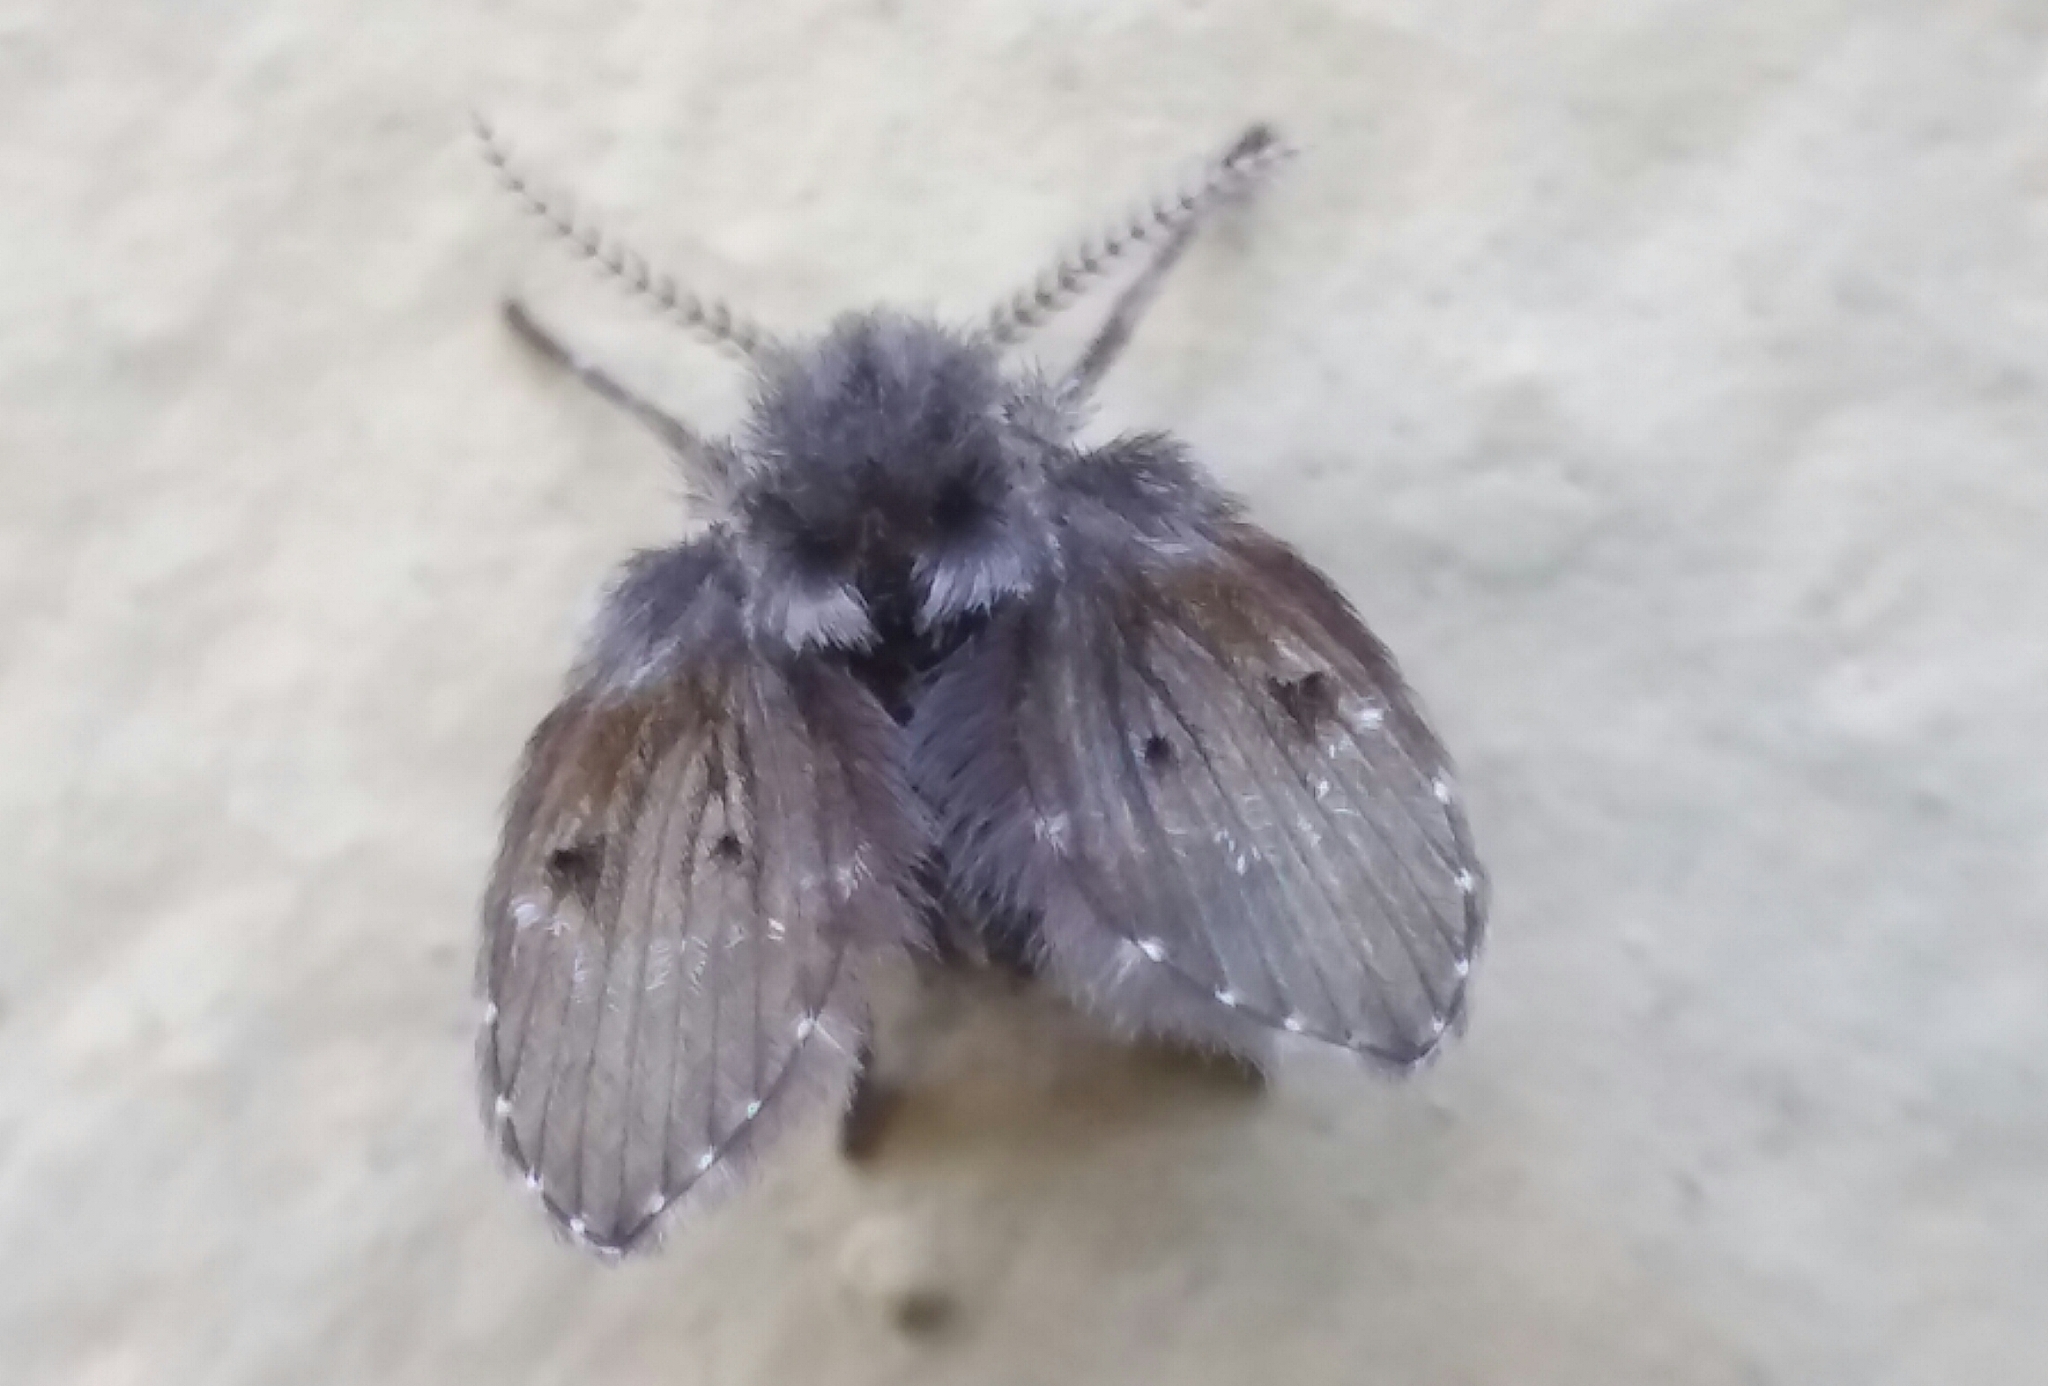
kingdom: Animalia
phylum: Arthropoda
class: Insecta
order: Diptera
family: Psychodidae
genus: Clogmia
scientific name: Clogmia albipunctatus
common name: White-spotted moth fly
